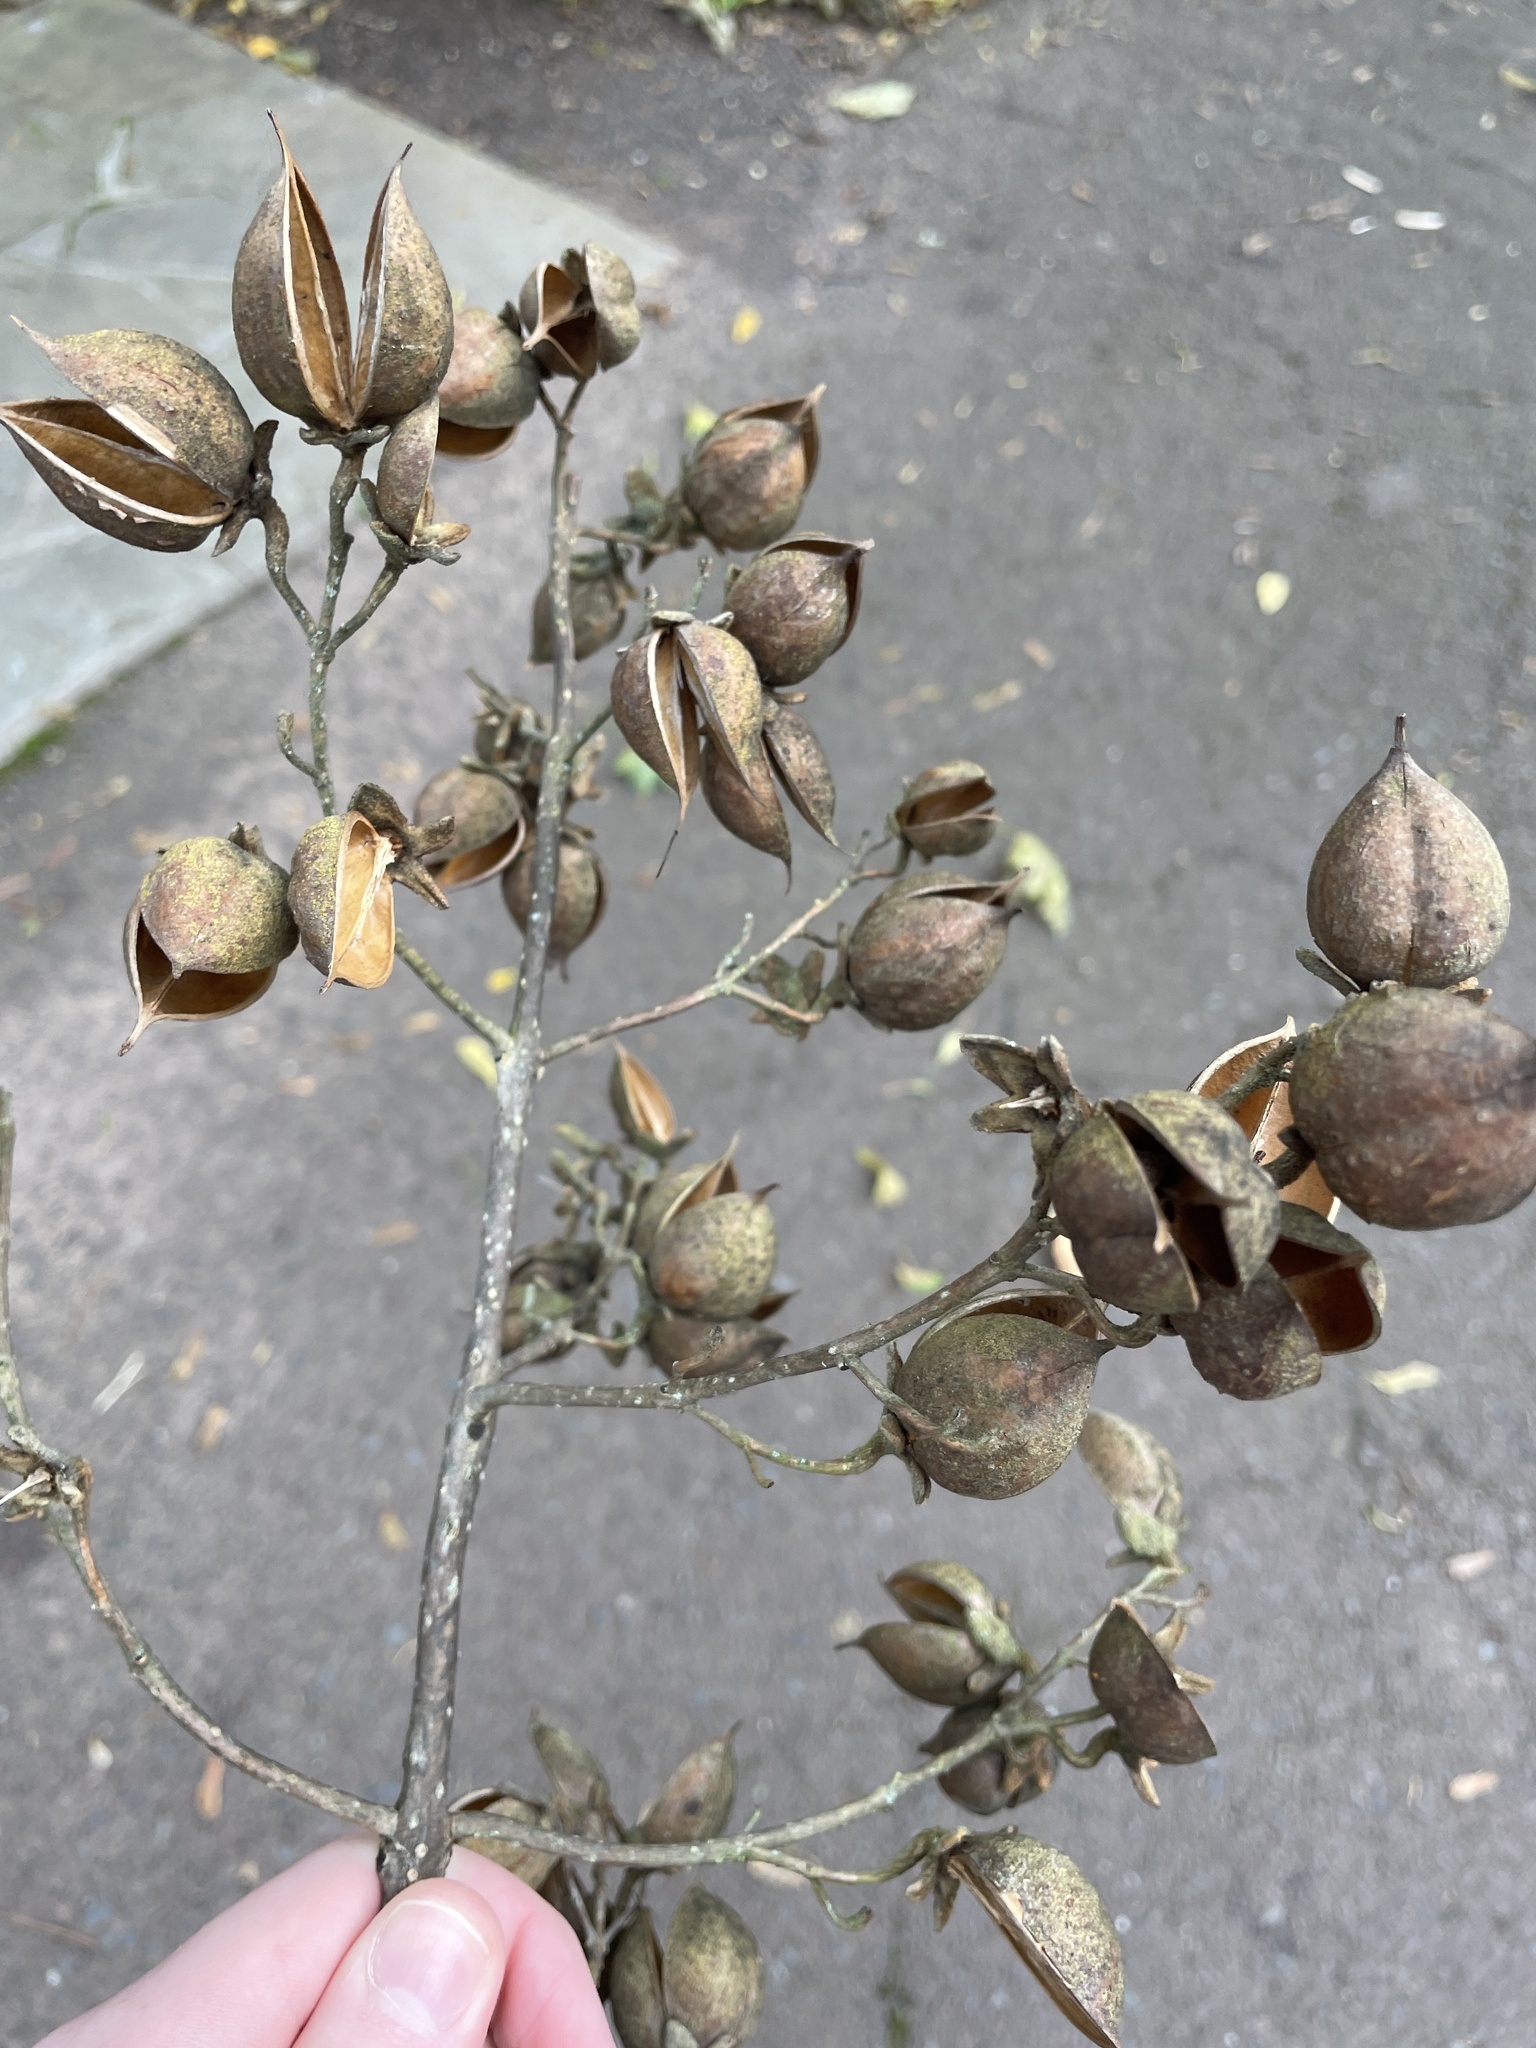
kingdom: Plantae
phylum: Tracheophyta
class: Magnoliopsida
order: Lamiales
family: Paulowniaceae
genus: Paulownia
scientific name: Paulownia tomentosa
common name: Foxglove-tree
